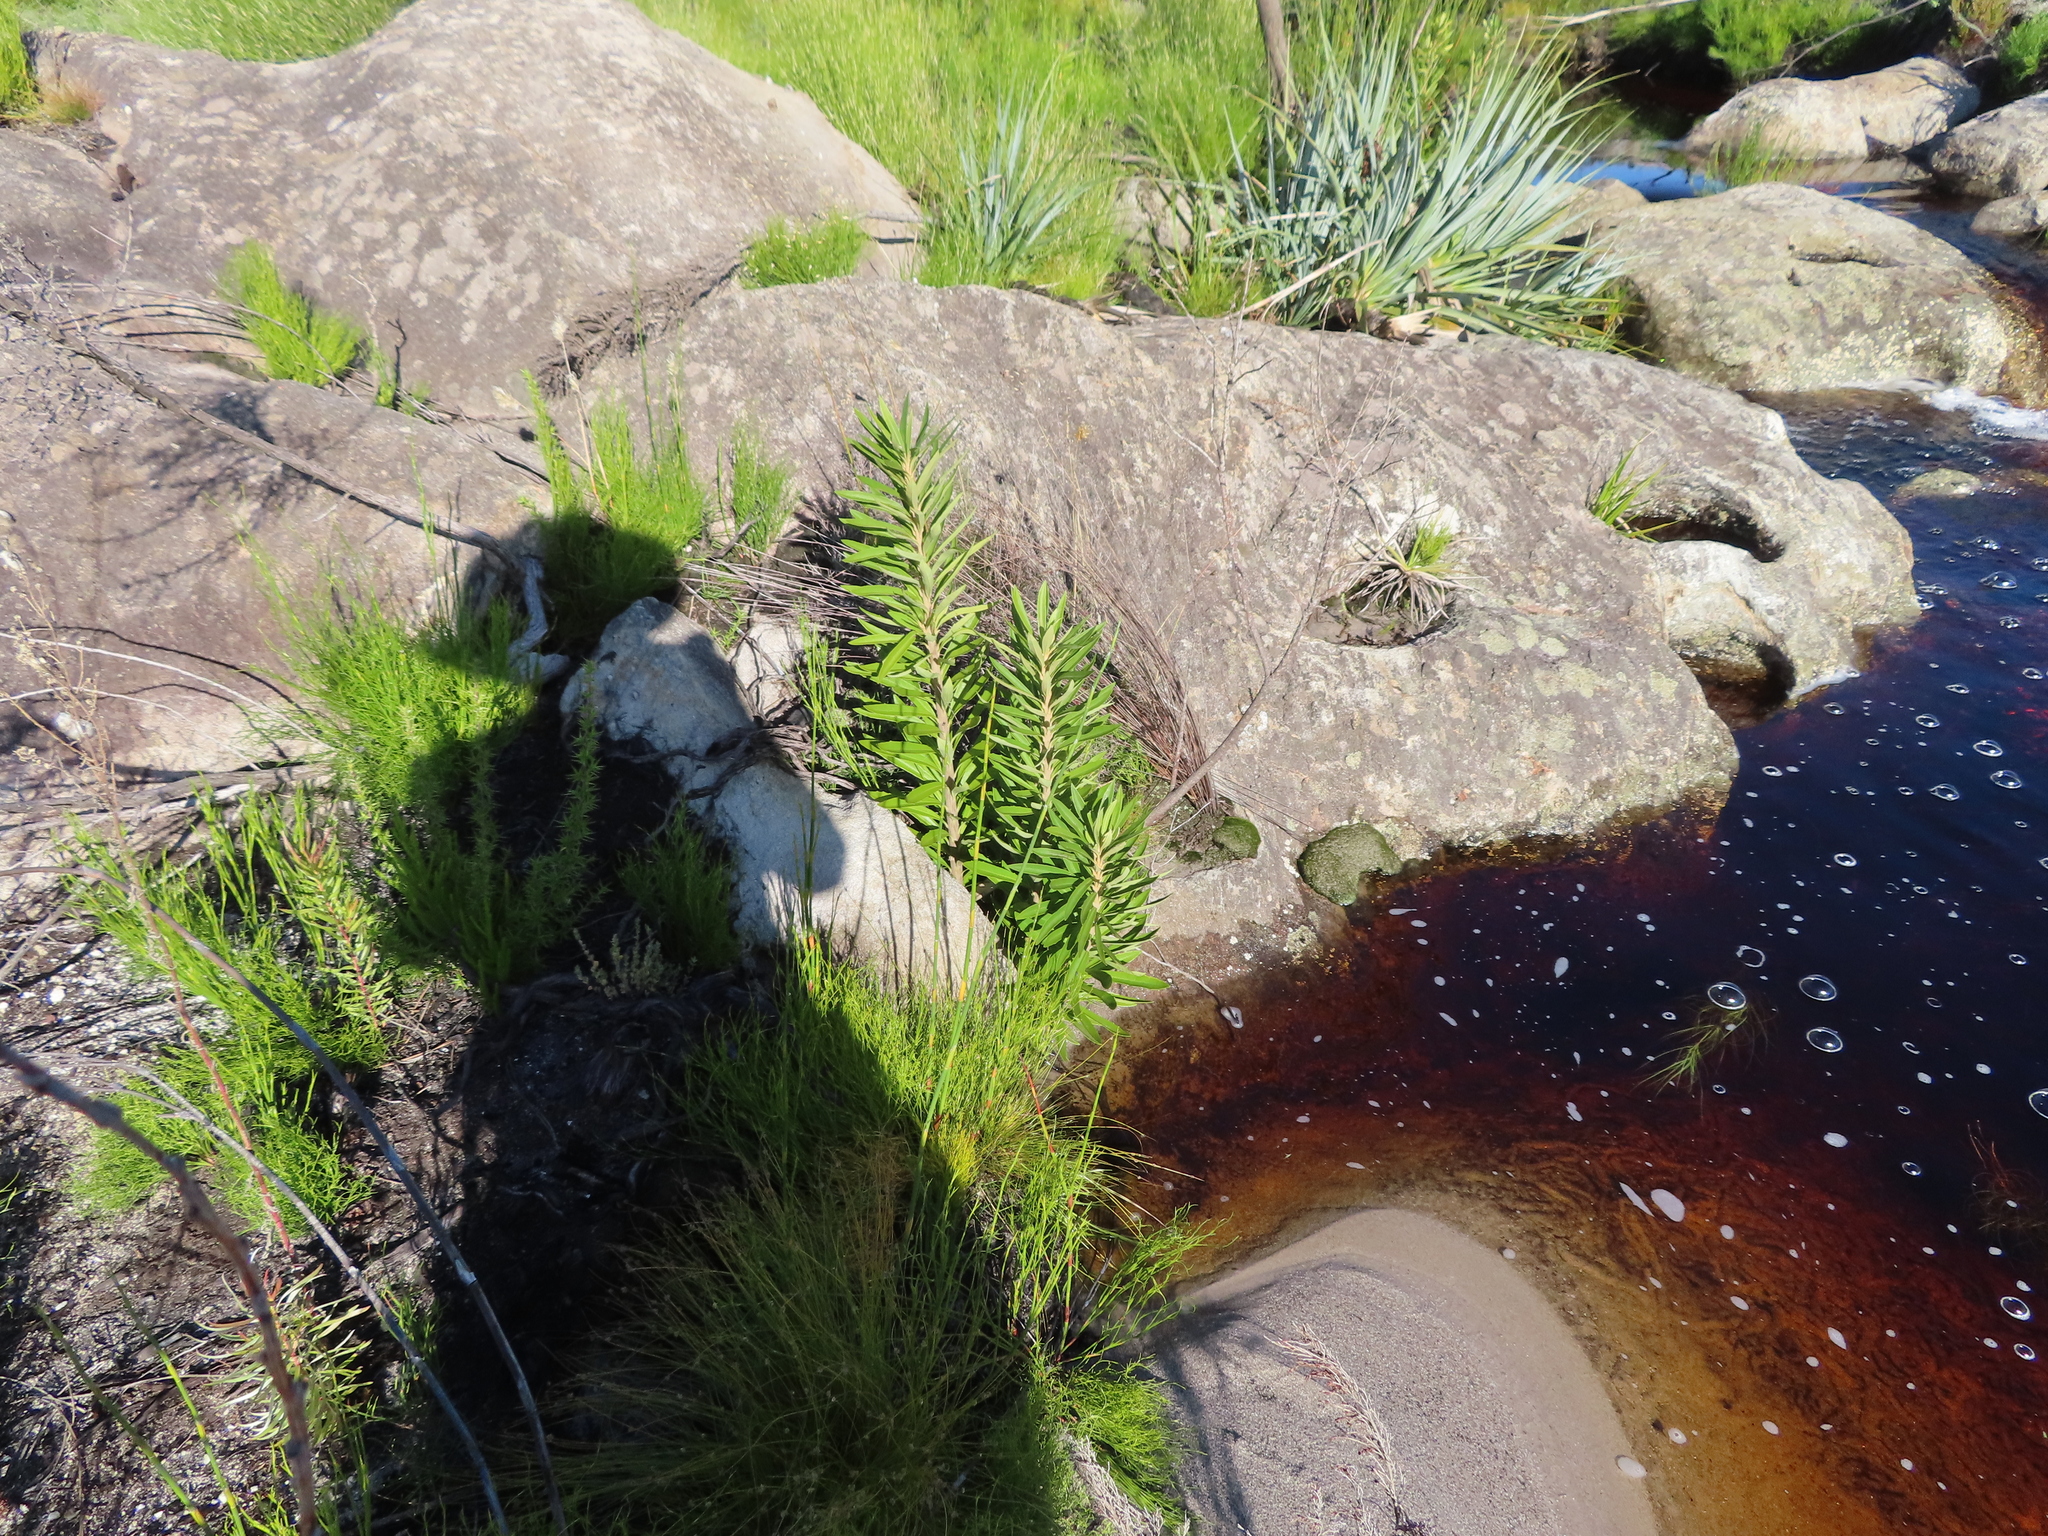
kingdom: Plantae
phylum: Tracheophyta
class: Magnoliopsida
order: Asterales
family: Asteraceae
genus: Brachylaena
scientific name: Brachylaena neriifolia
